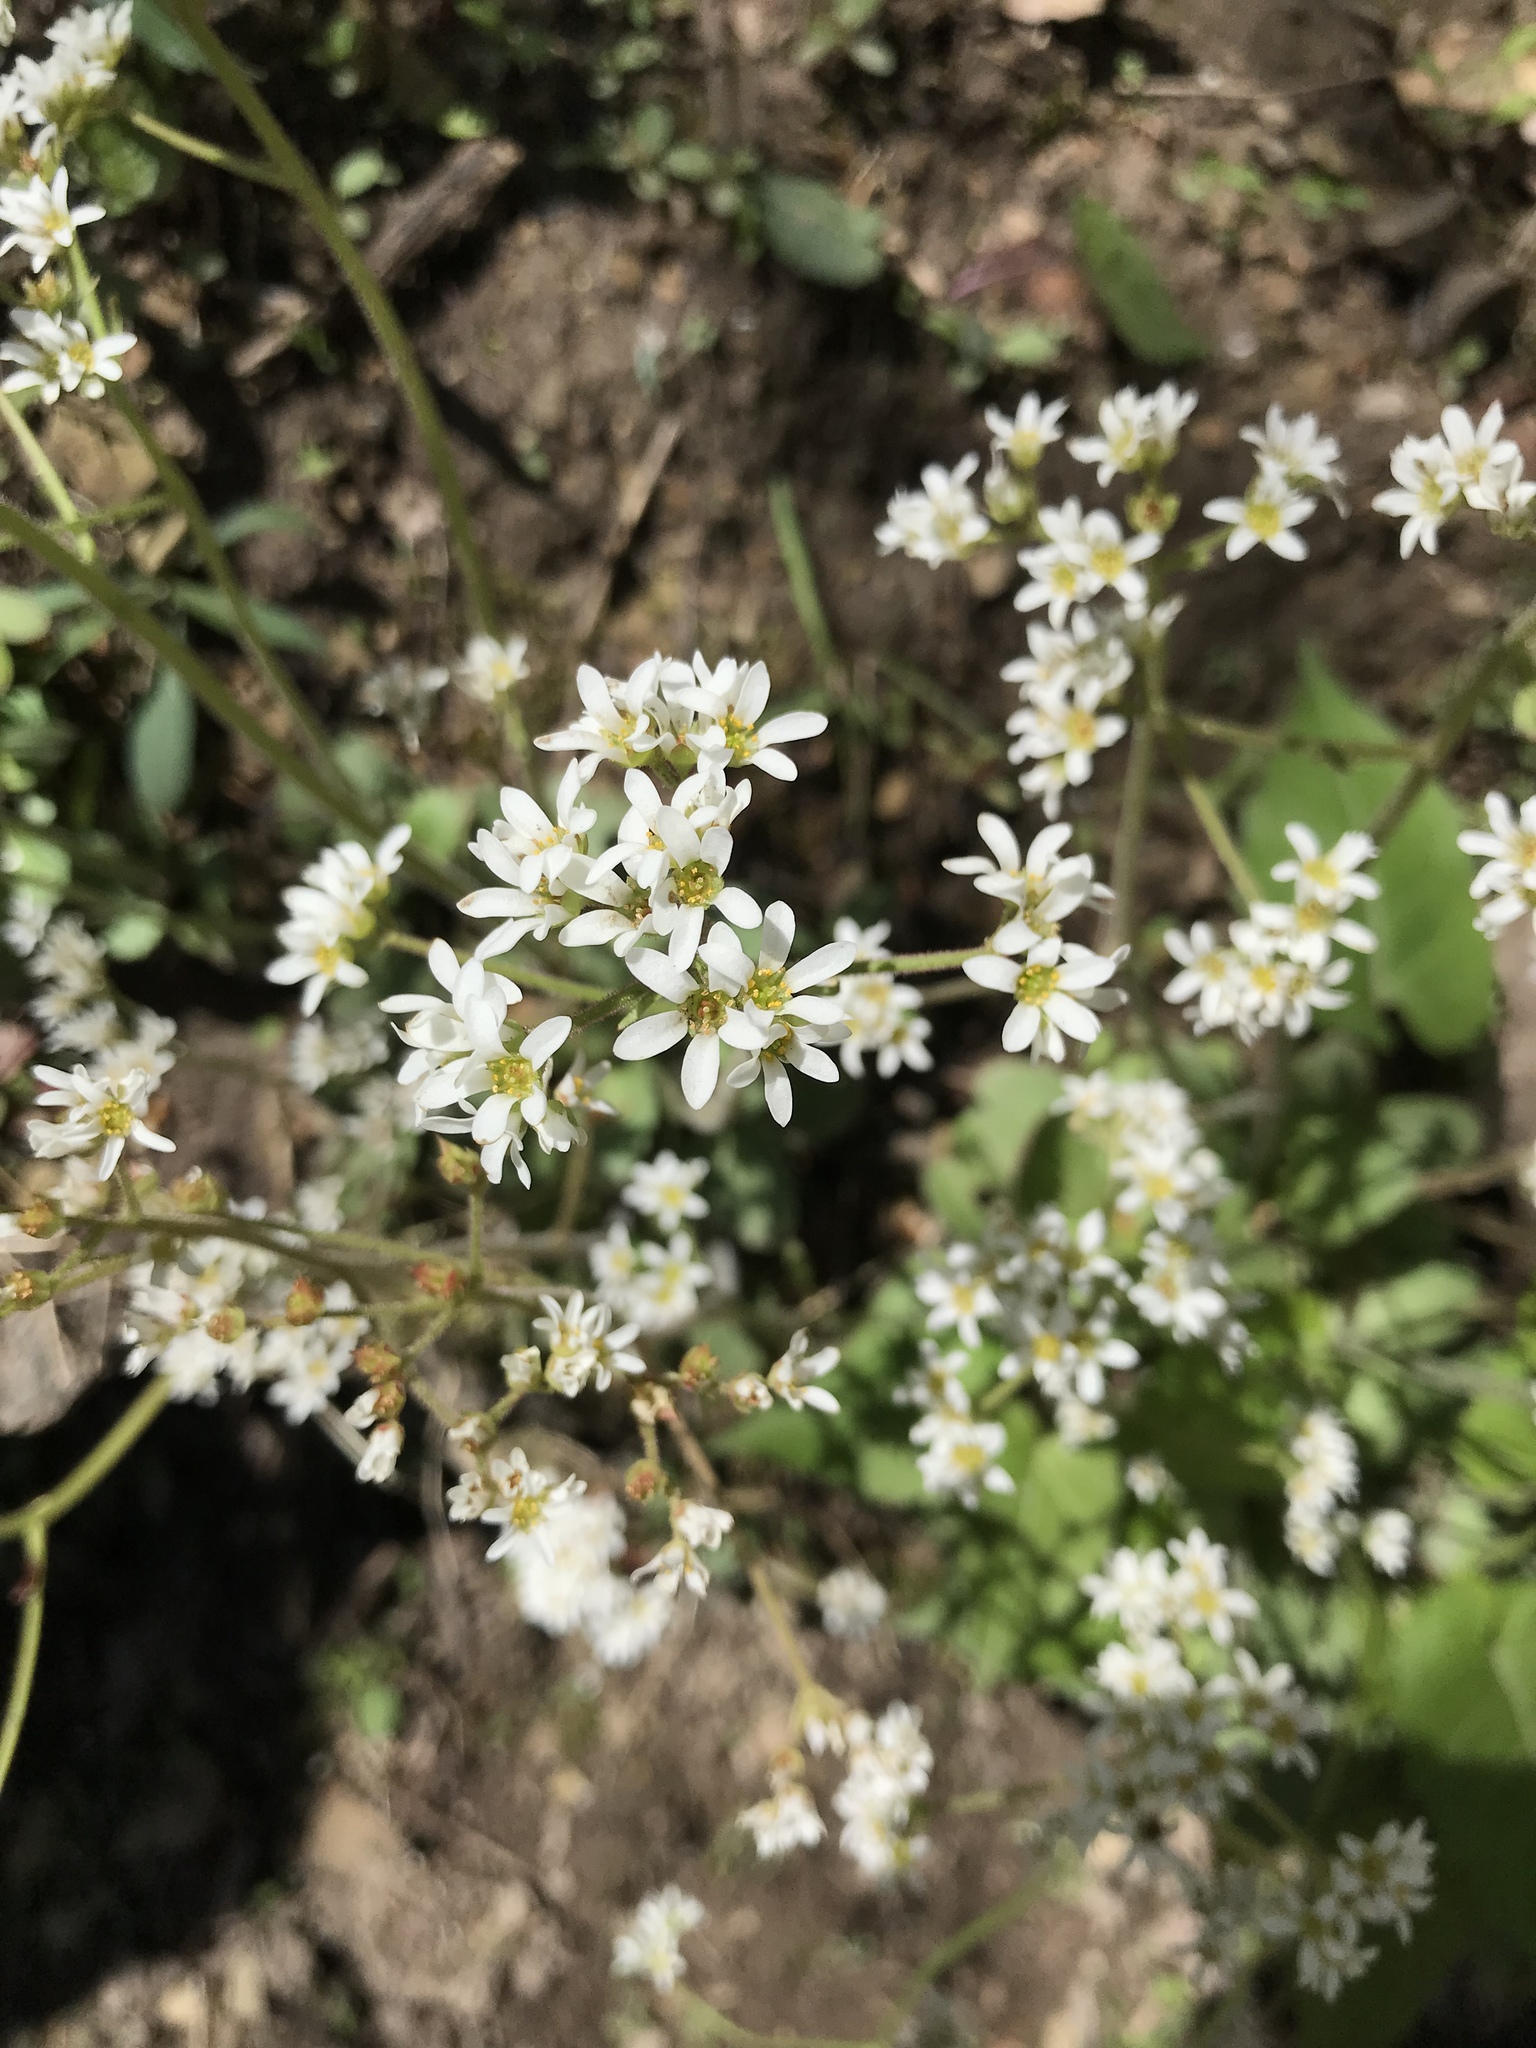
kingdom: Plantae
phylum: Tracheophyta
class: Magnoliopsida
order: Saxifragales
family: Saxifragaceae
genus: Micranthes
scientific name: Micranthes virginiensis
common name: Early saxifrage
